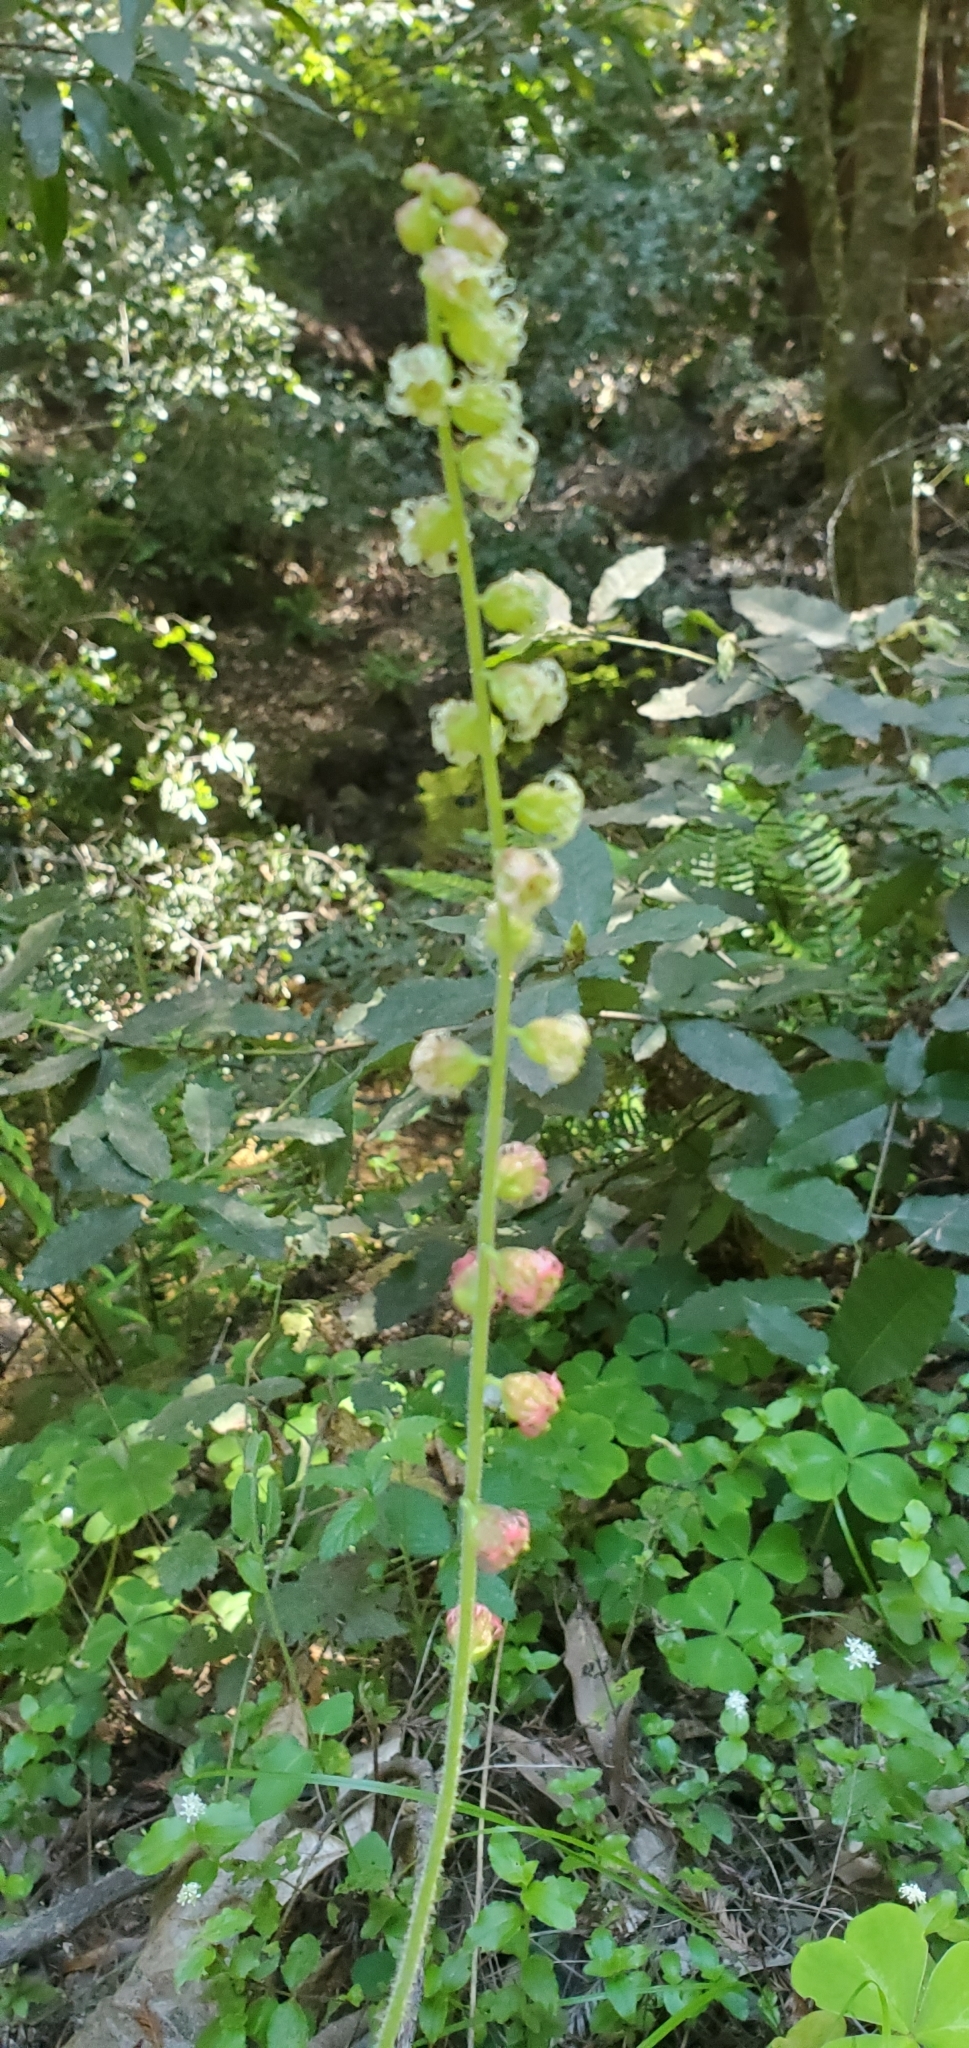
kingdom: Plantae
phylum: Tracheophyta
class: Magnoliopsida
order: Saxifragales
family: Saxifragaceae
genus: Tellima
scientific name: Tellima grandiflora
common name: Fringecups
